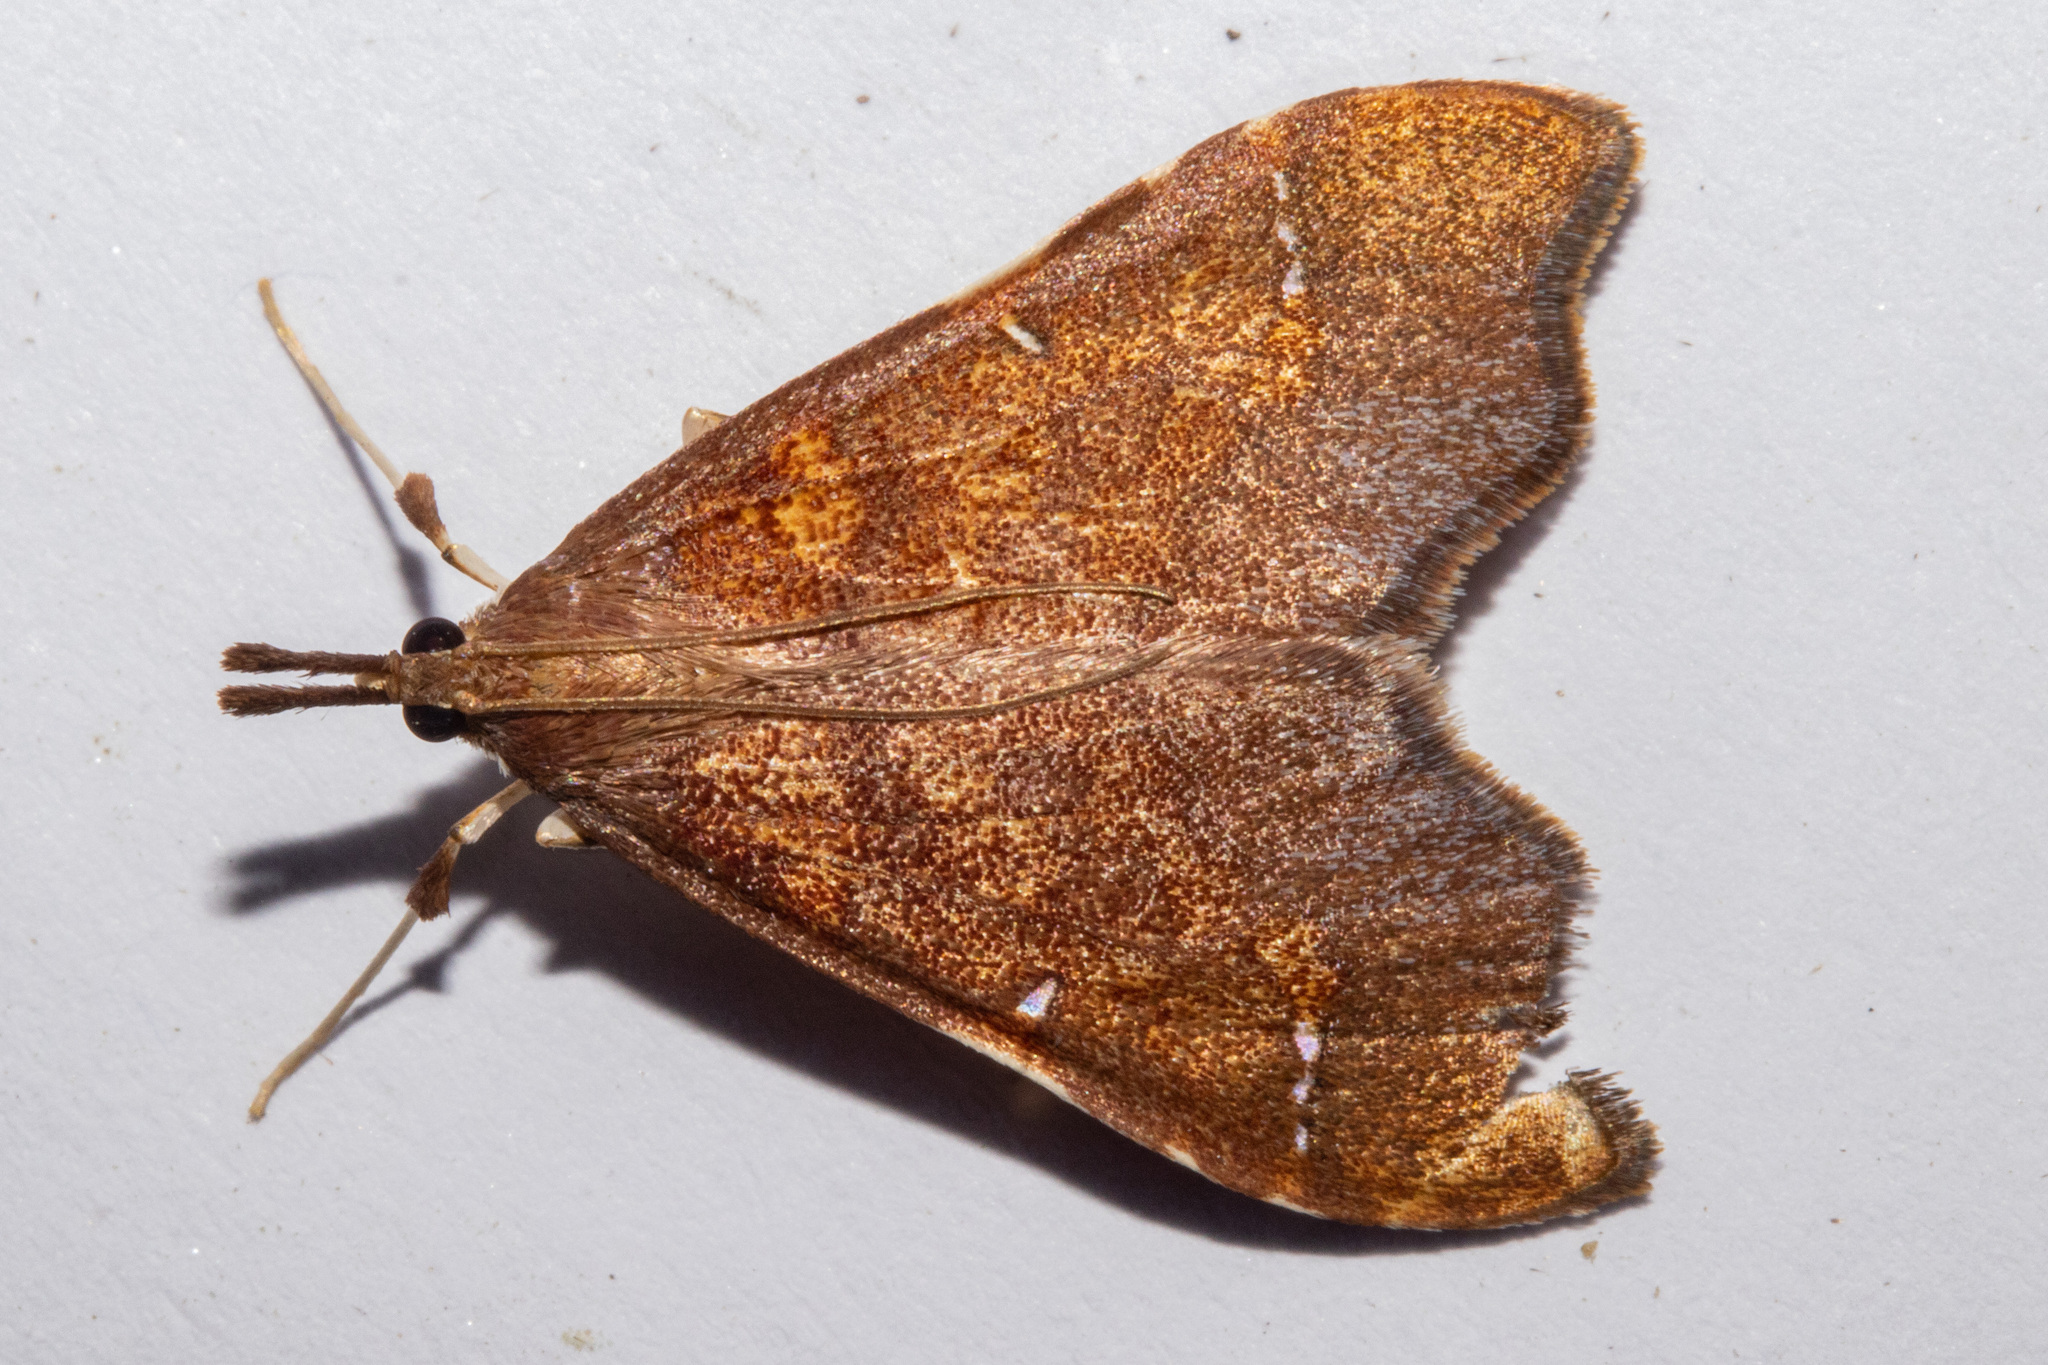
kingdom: Animalia
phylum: Arthropoda
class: Insecta
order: Lepidoptera
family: Crambidae
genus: Deana
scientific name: Deana hybreasalis
